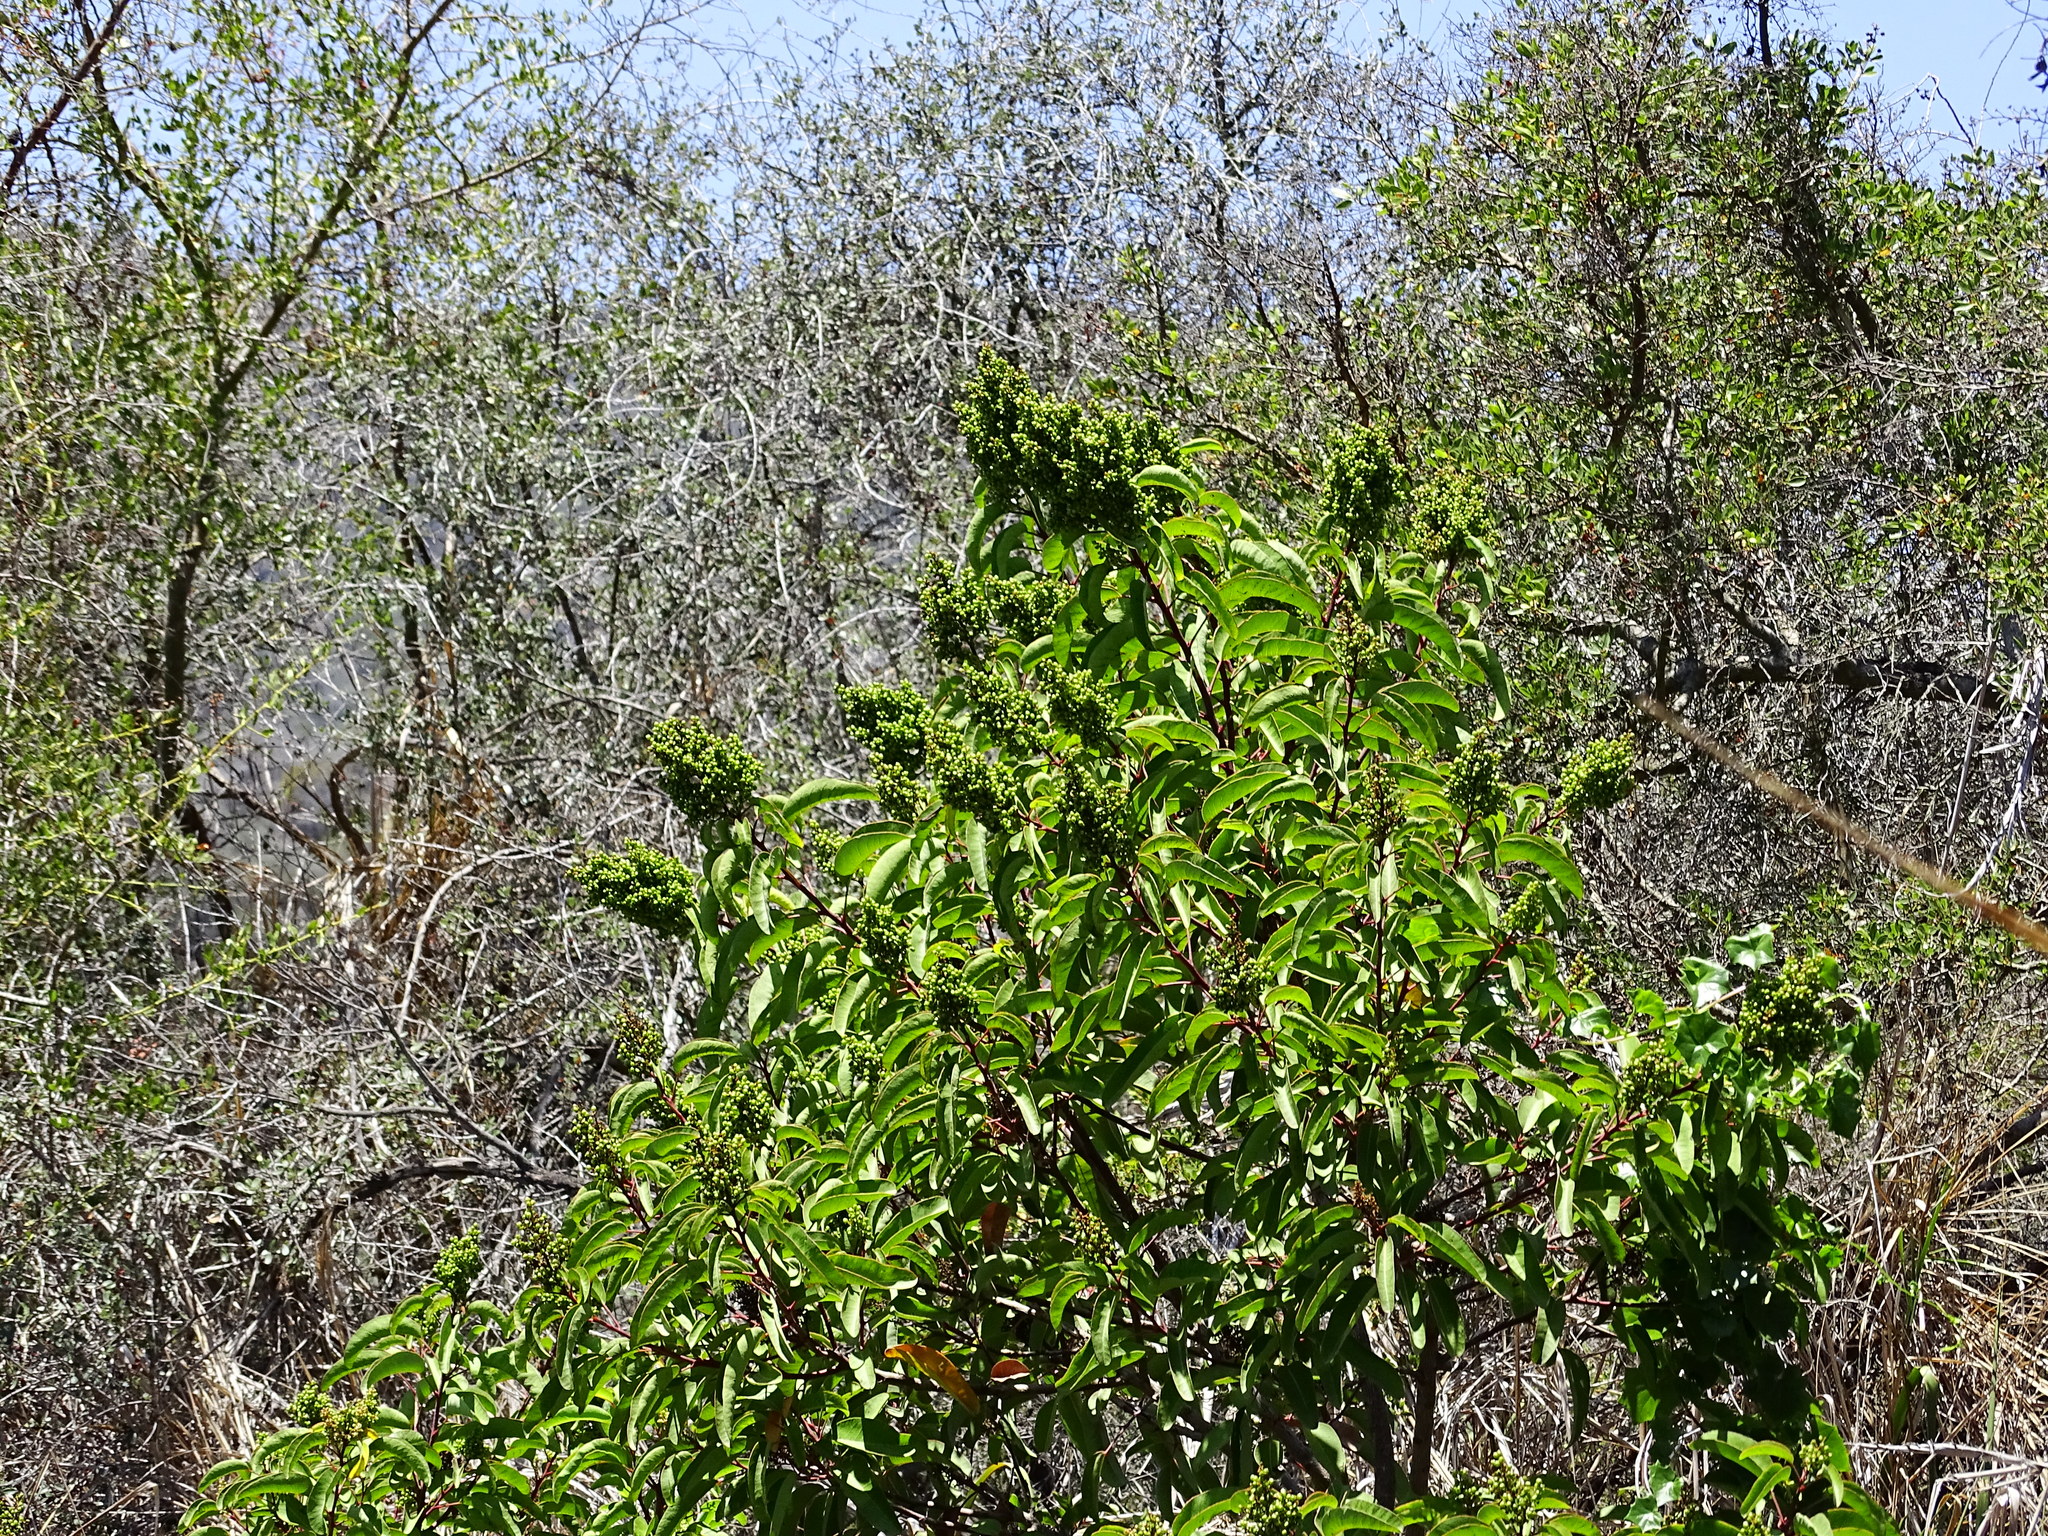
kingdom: Plantae
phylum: Tracheophyta
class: Magnoliopsida
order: Sapindales
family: Anacardiaceae
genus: Malosma
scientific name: Malosma laurina
